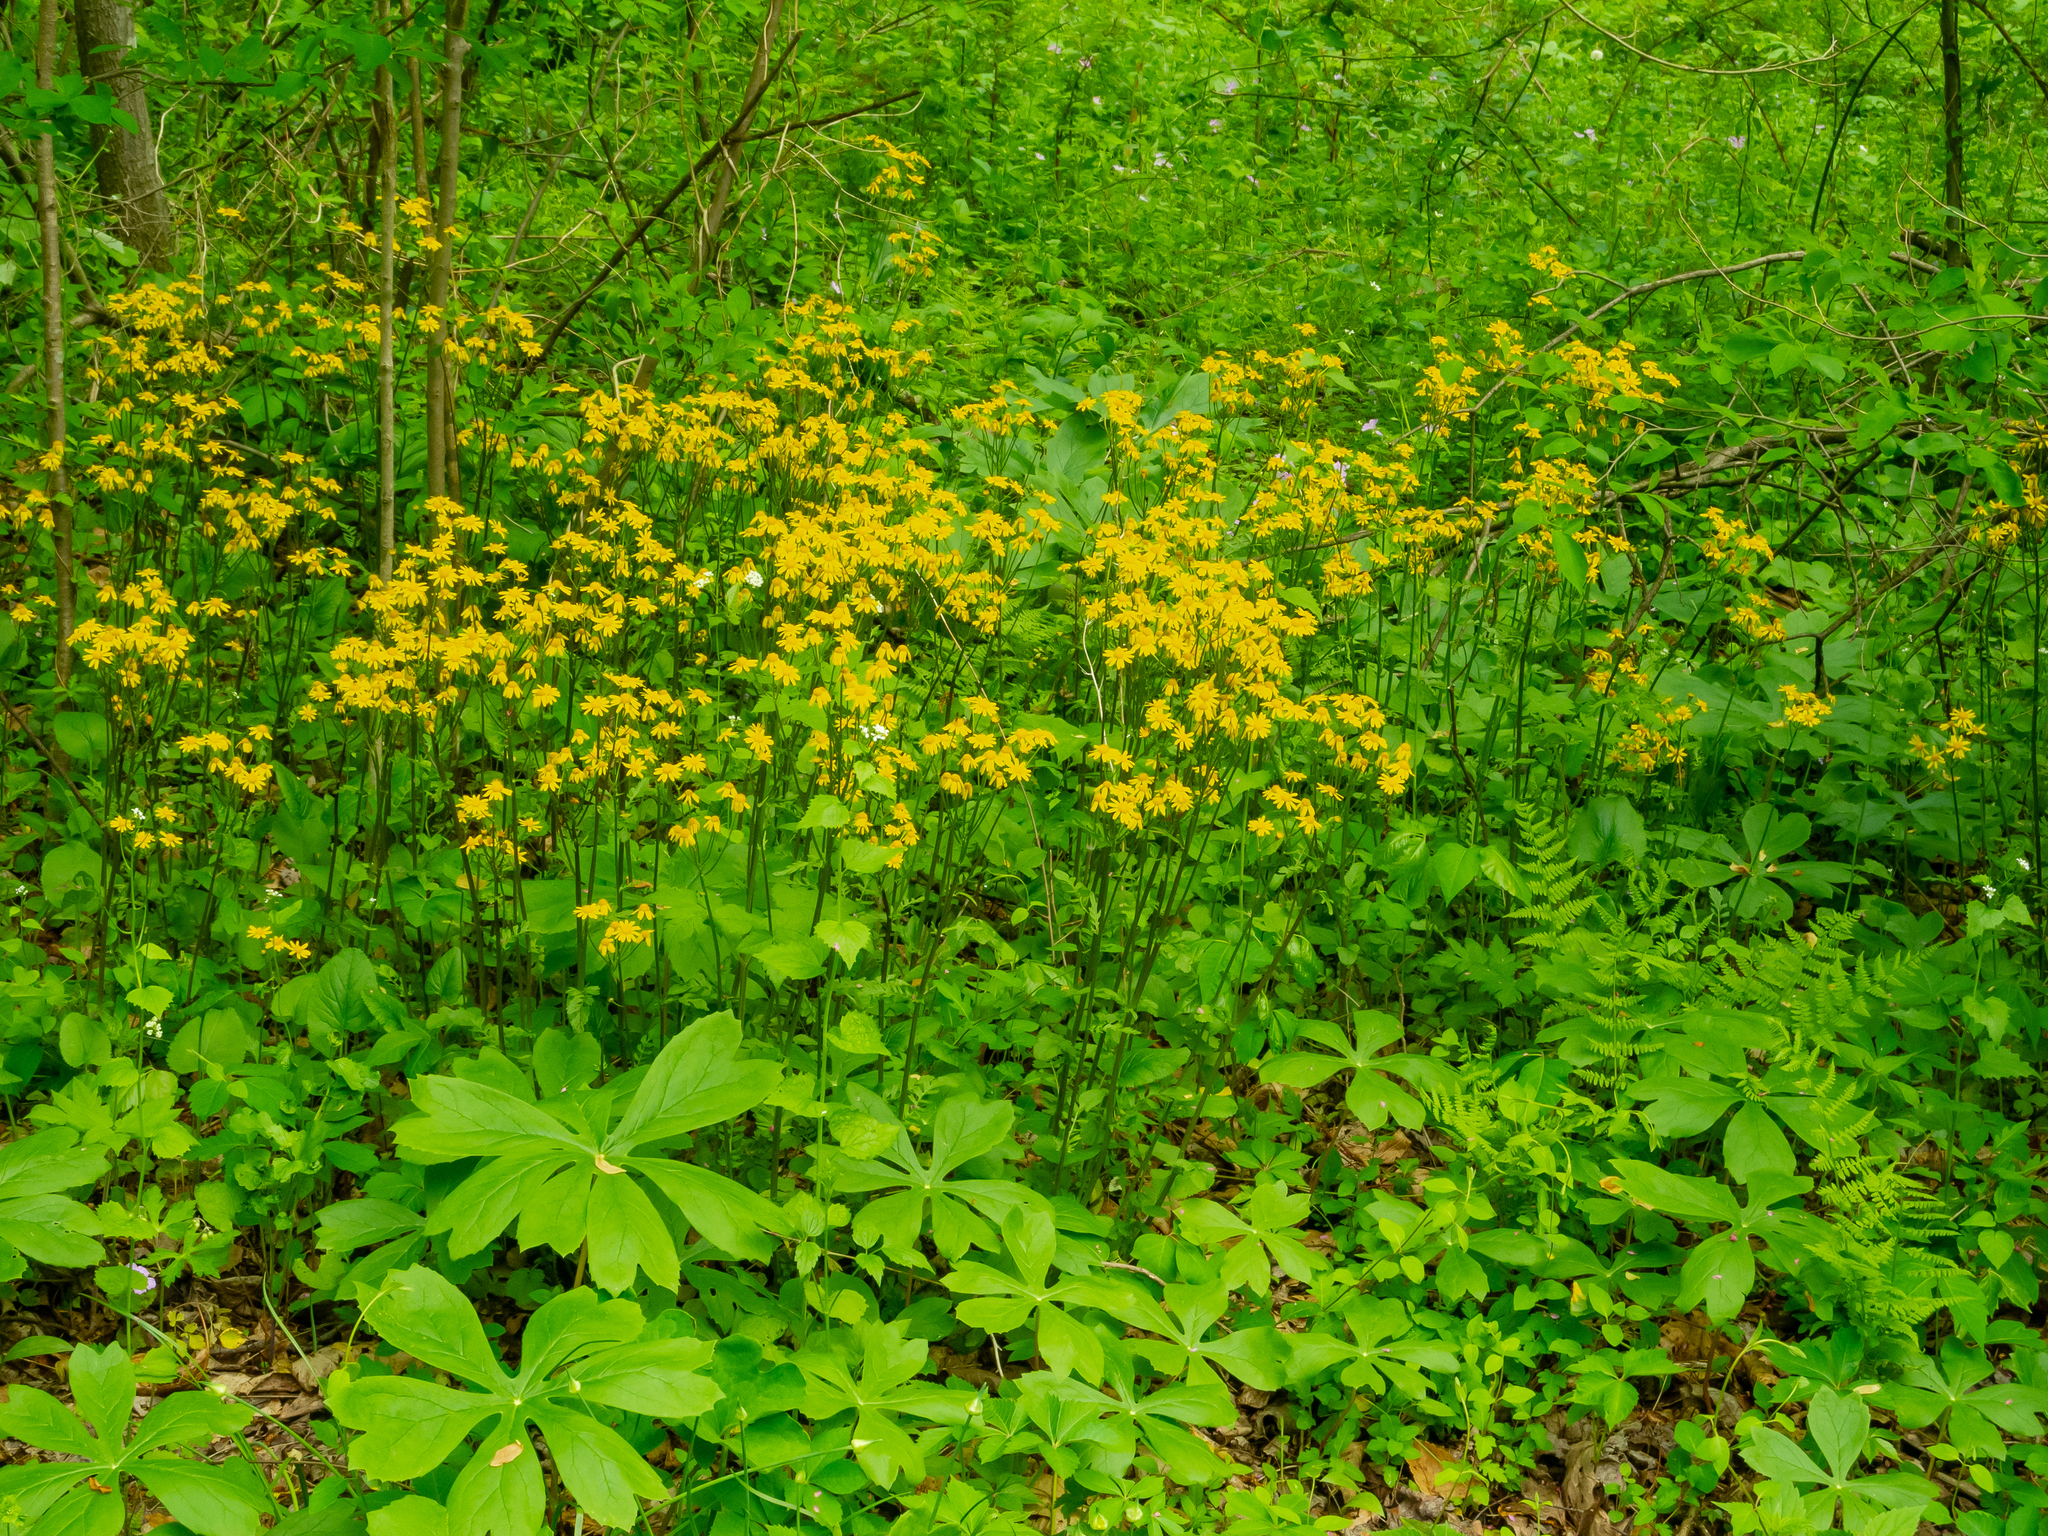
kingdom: Plantae
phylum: Tracheophyta
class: Magnoliopsida
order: Asterales
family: Asteraceae
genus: Packera
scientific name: Packera aurea
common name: Golden groundsel
